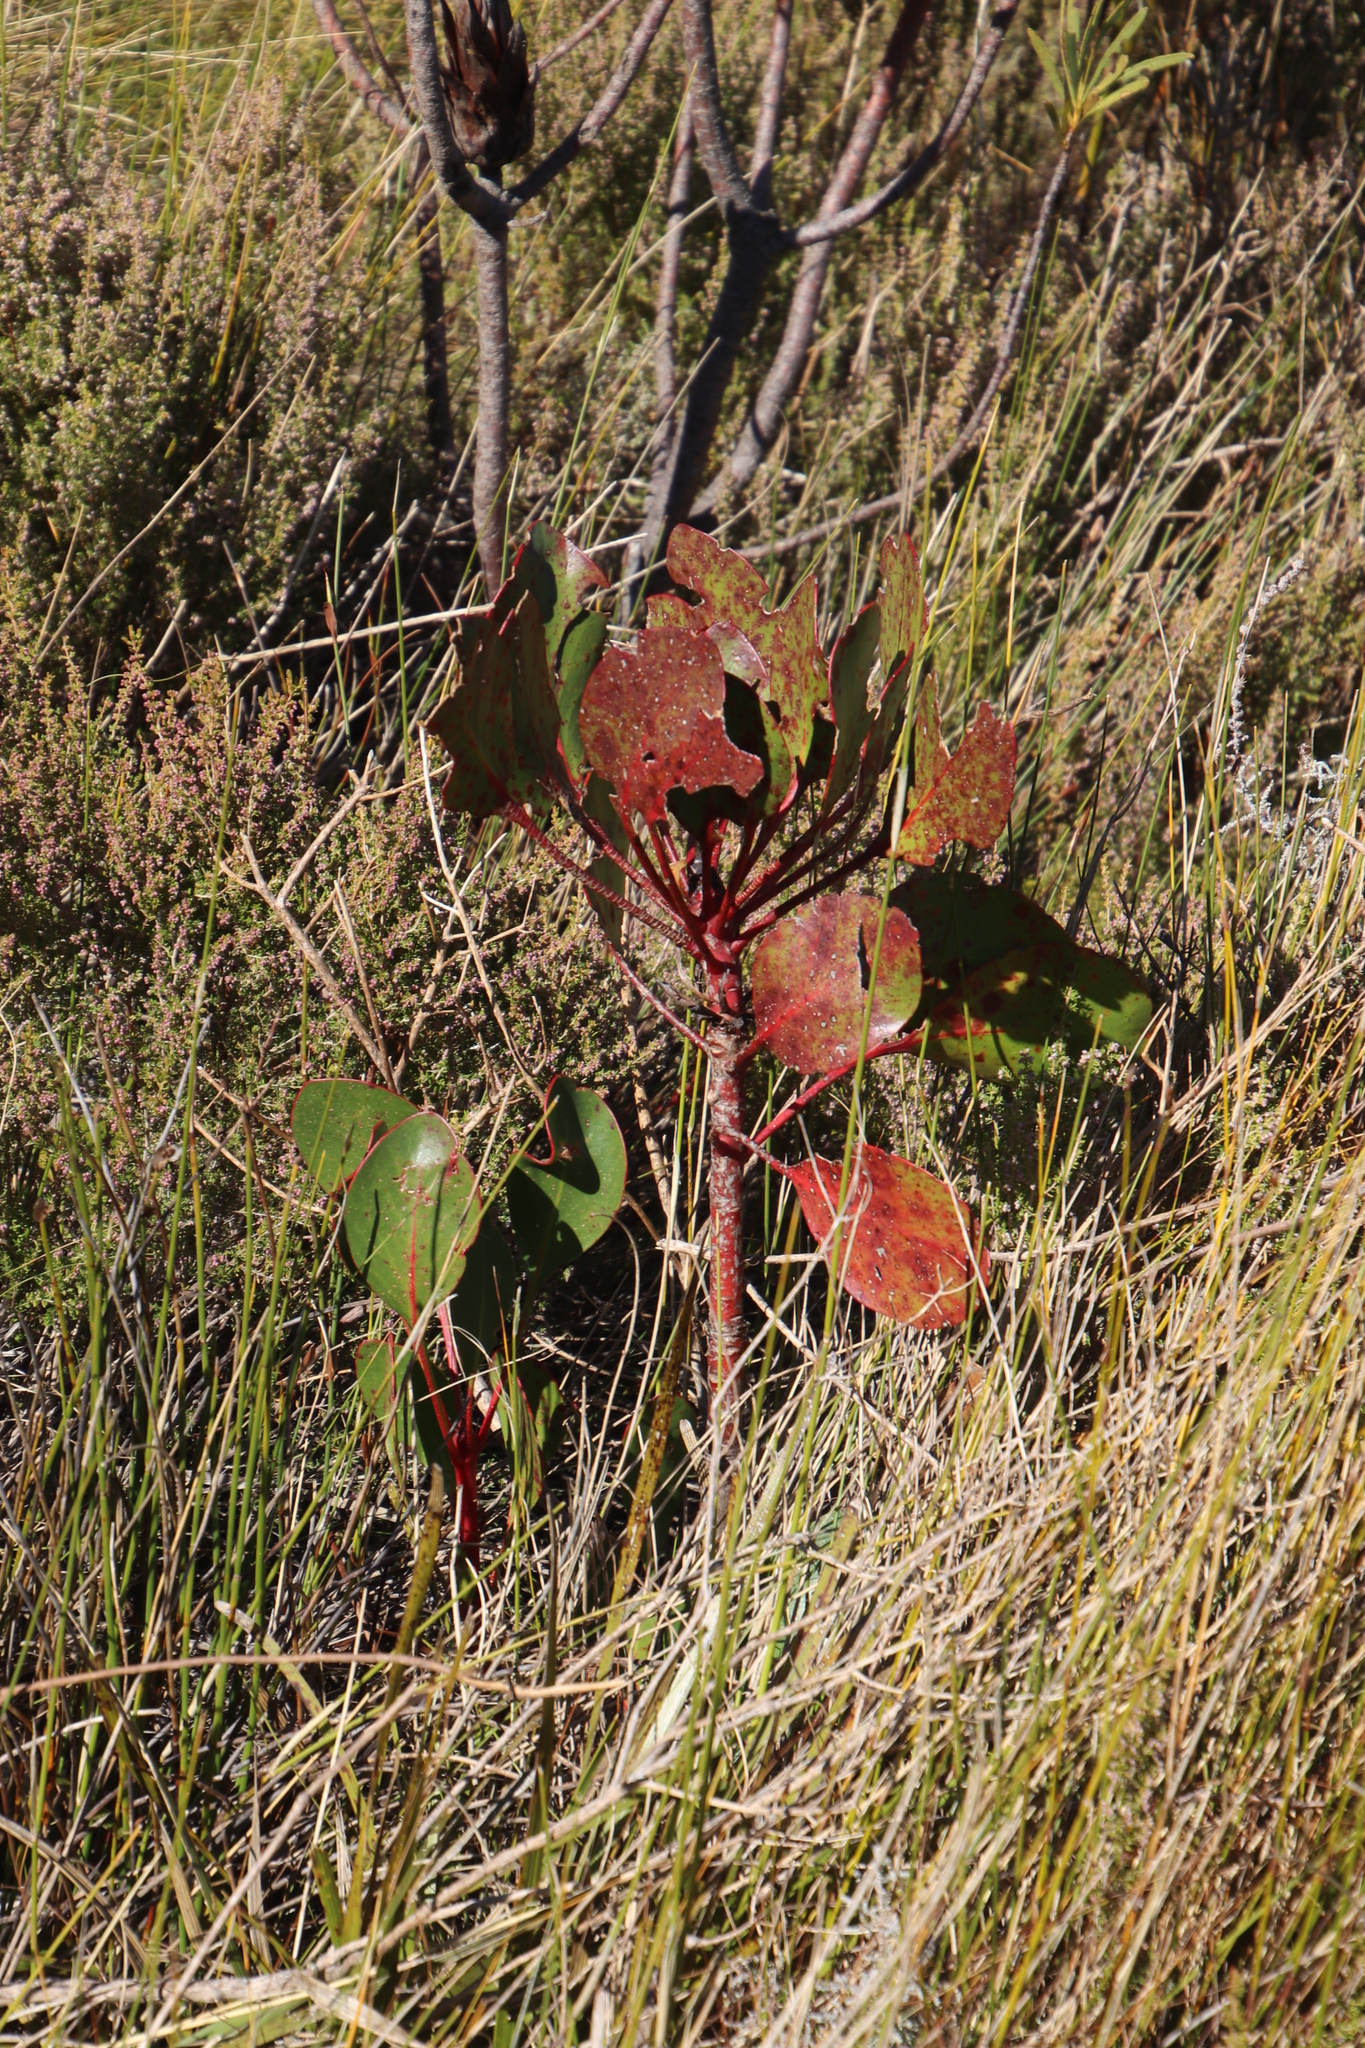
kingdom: Plantae
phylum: Tracheophyta
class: Magnoliopsida
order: Proteales
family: Proteaceae
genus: Protea
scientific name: Protea cynaroides
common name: King protea
